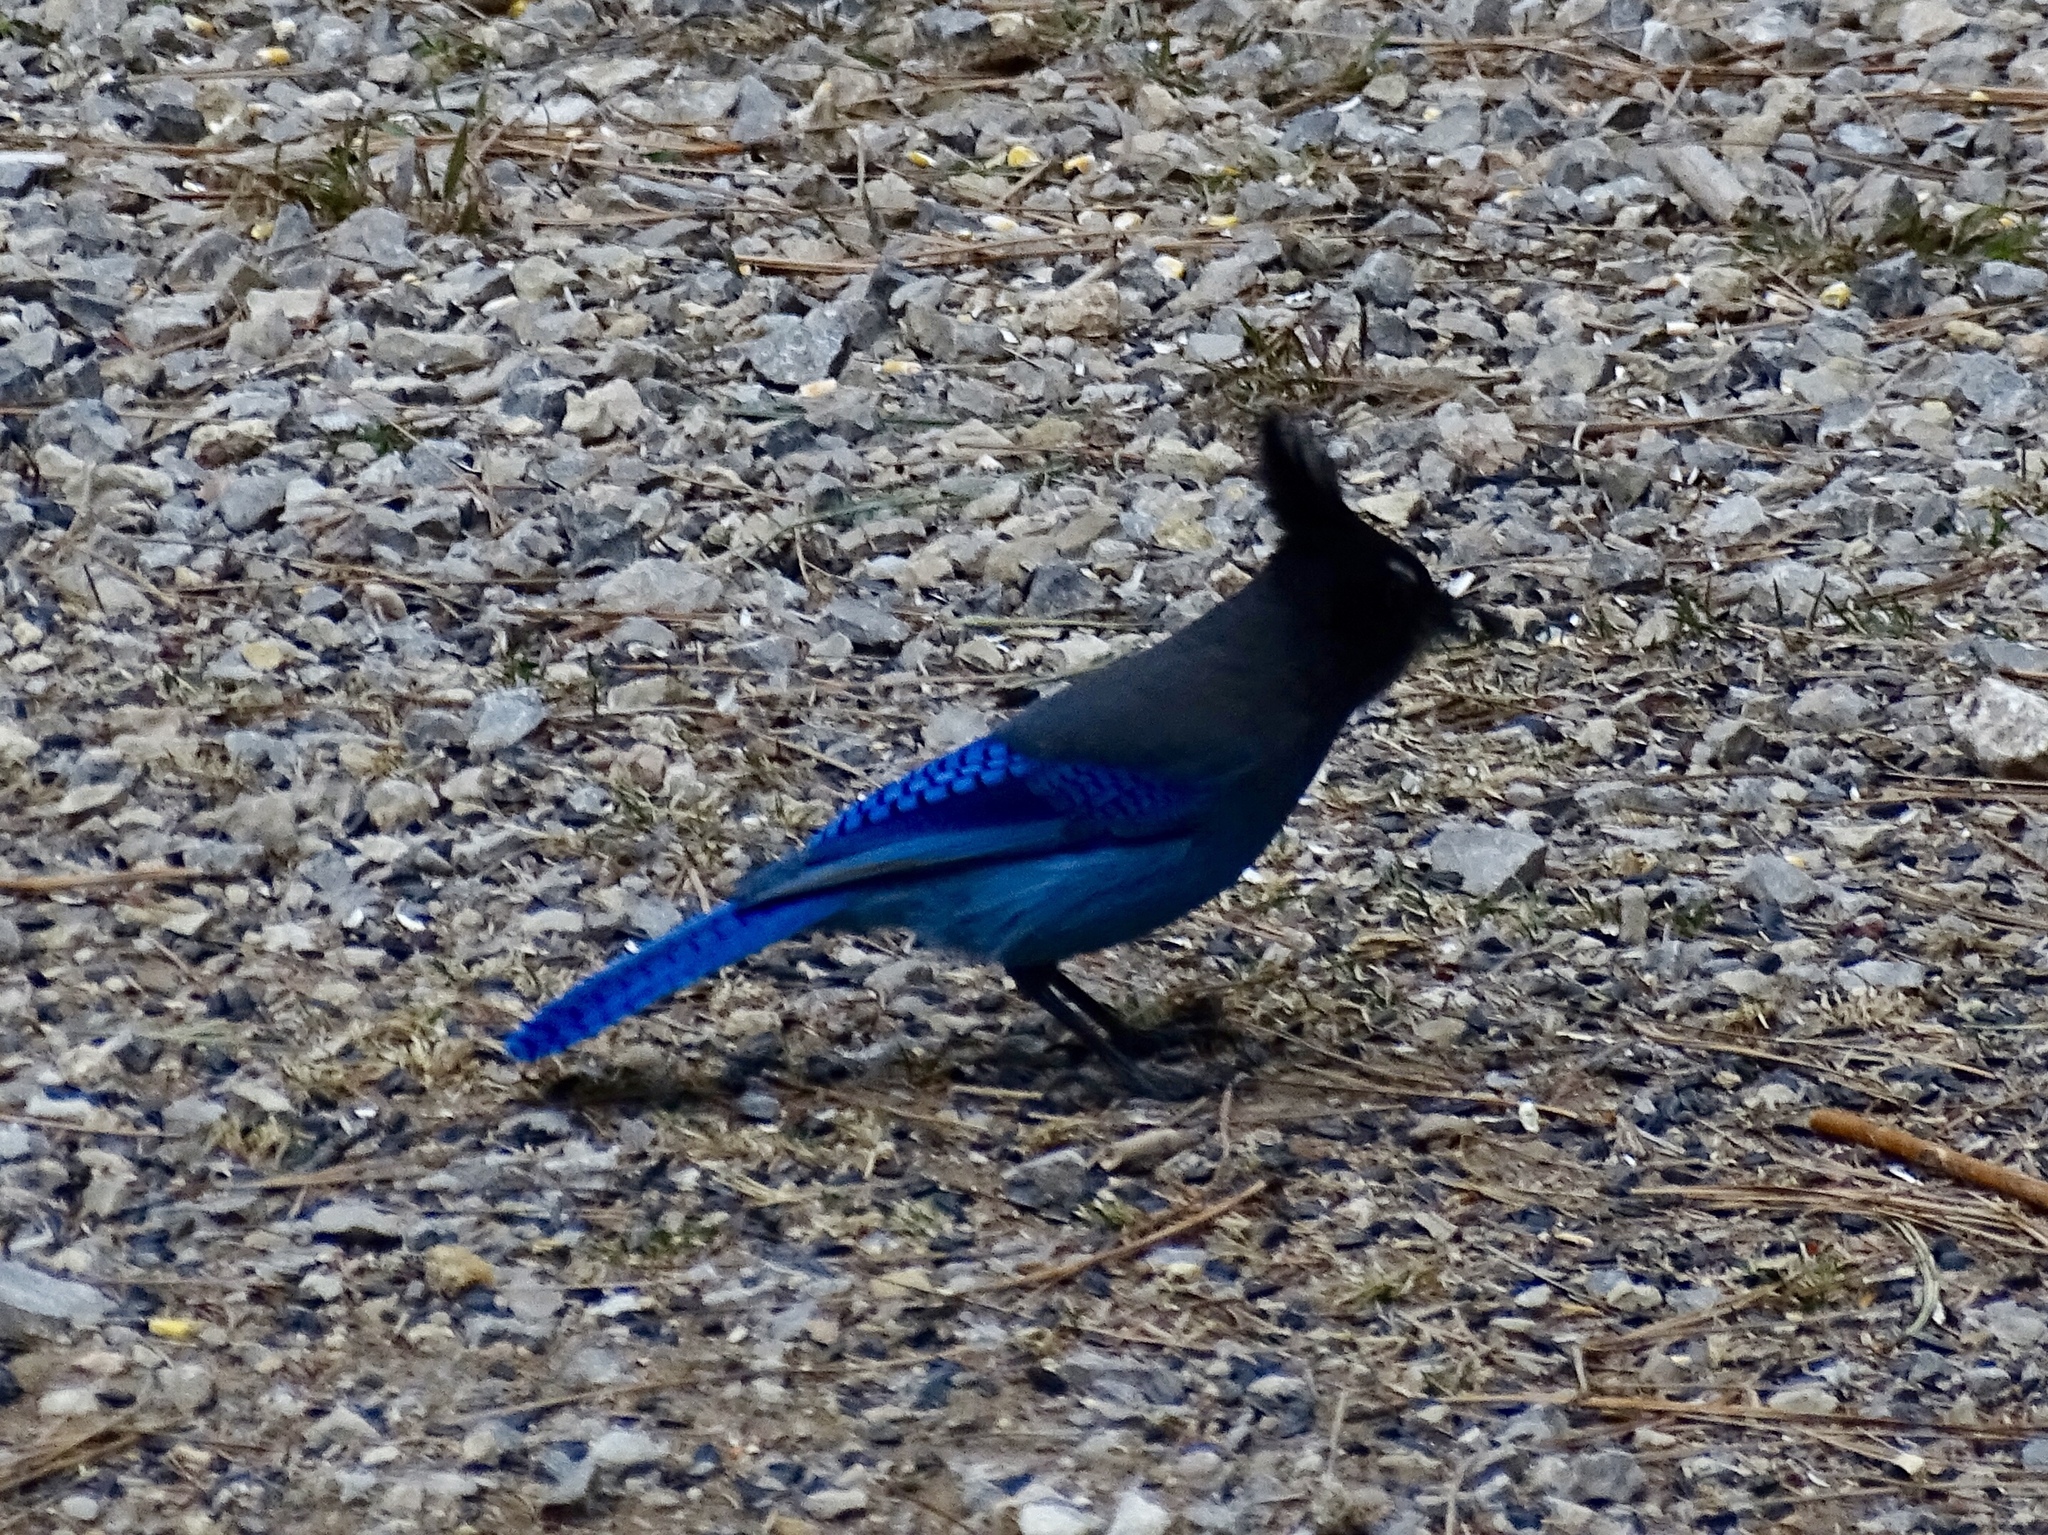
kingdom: Animalia
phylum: Chordata
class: Aves
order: Passeriformes
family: Corvidae
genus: Cyanocitta
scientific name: Cyanocitta stelleri
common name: Steller's jay
